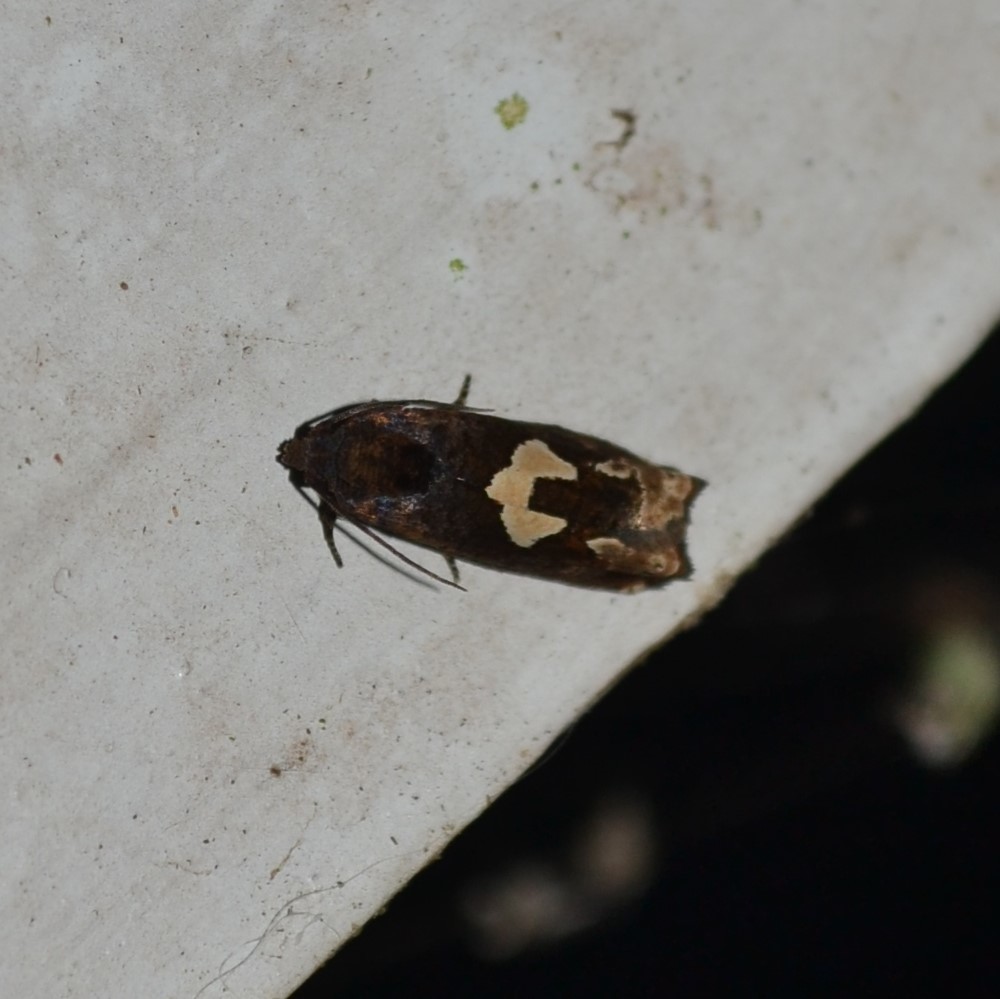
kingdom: Animalia
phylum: Arthropoda
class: Insecta
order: Lepidoptera
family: Tortricidae
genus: Epiblema
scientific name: Epiblema otiosana
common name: Bidens borer moth
